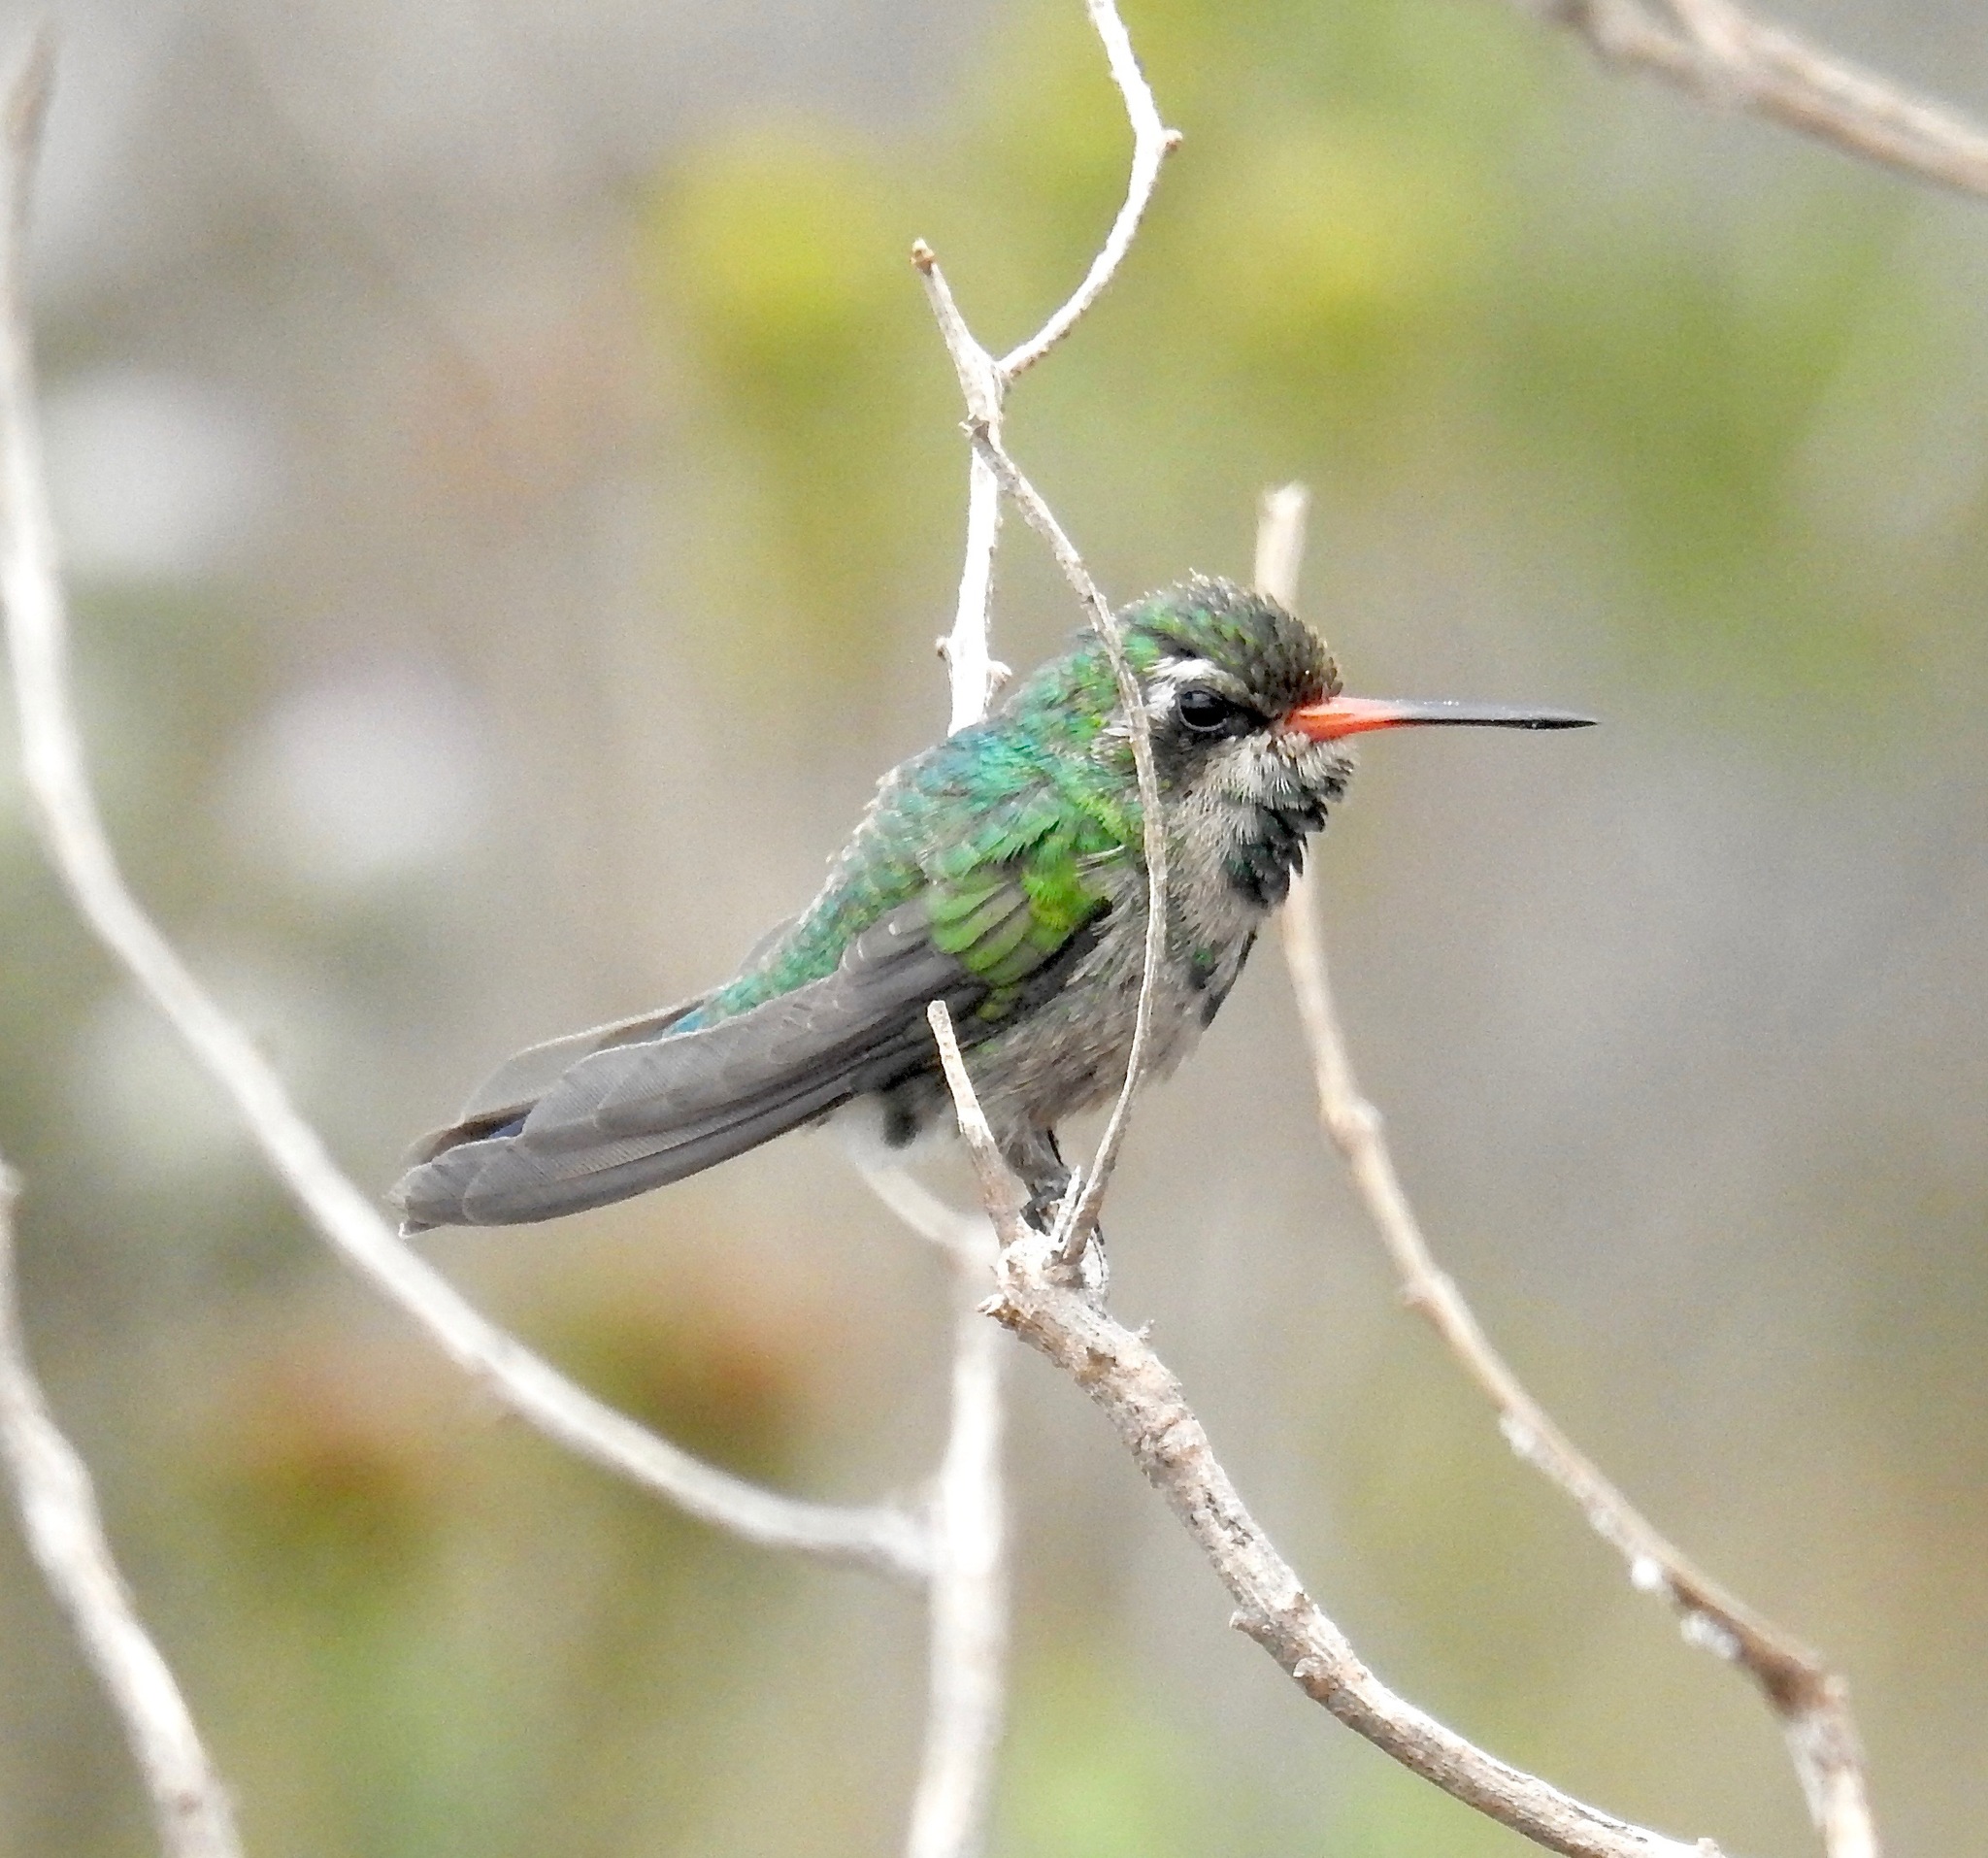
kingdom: Animalia
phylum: Chordata
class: Aves
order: Apodiformes
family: Trochilidae
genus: Chlorostilbon
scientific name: Chlorostilbon lucidus
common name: Glittering-bellied emerald
